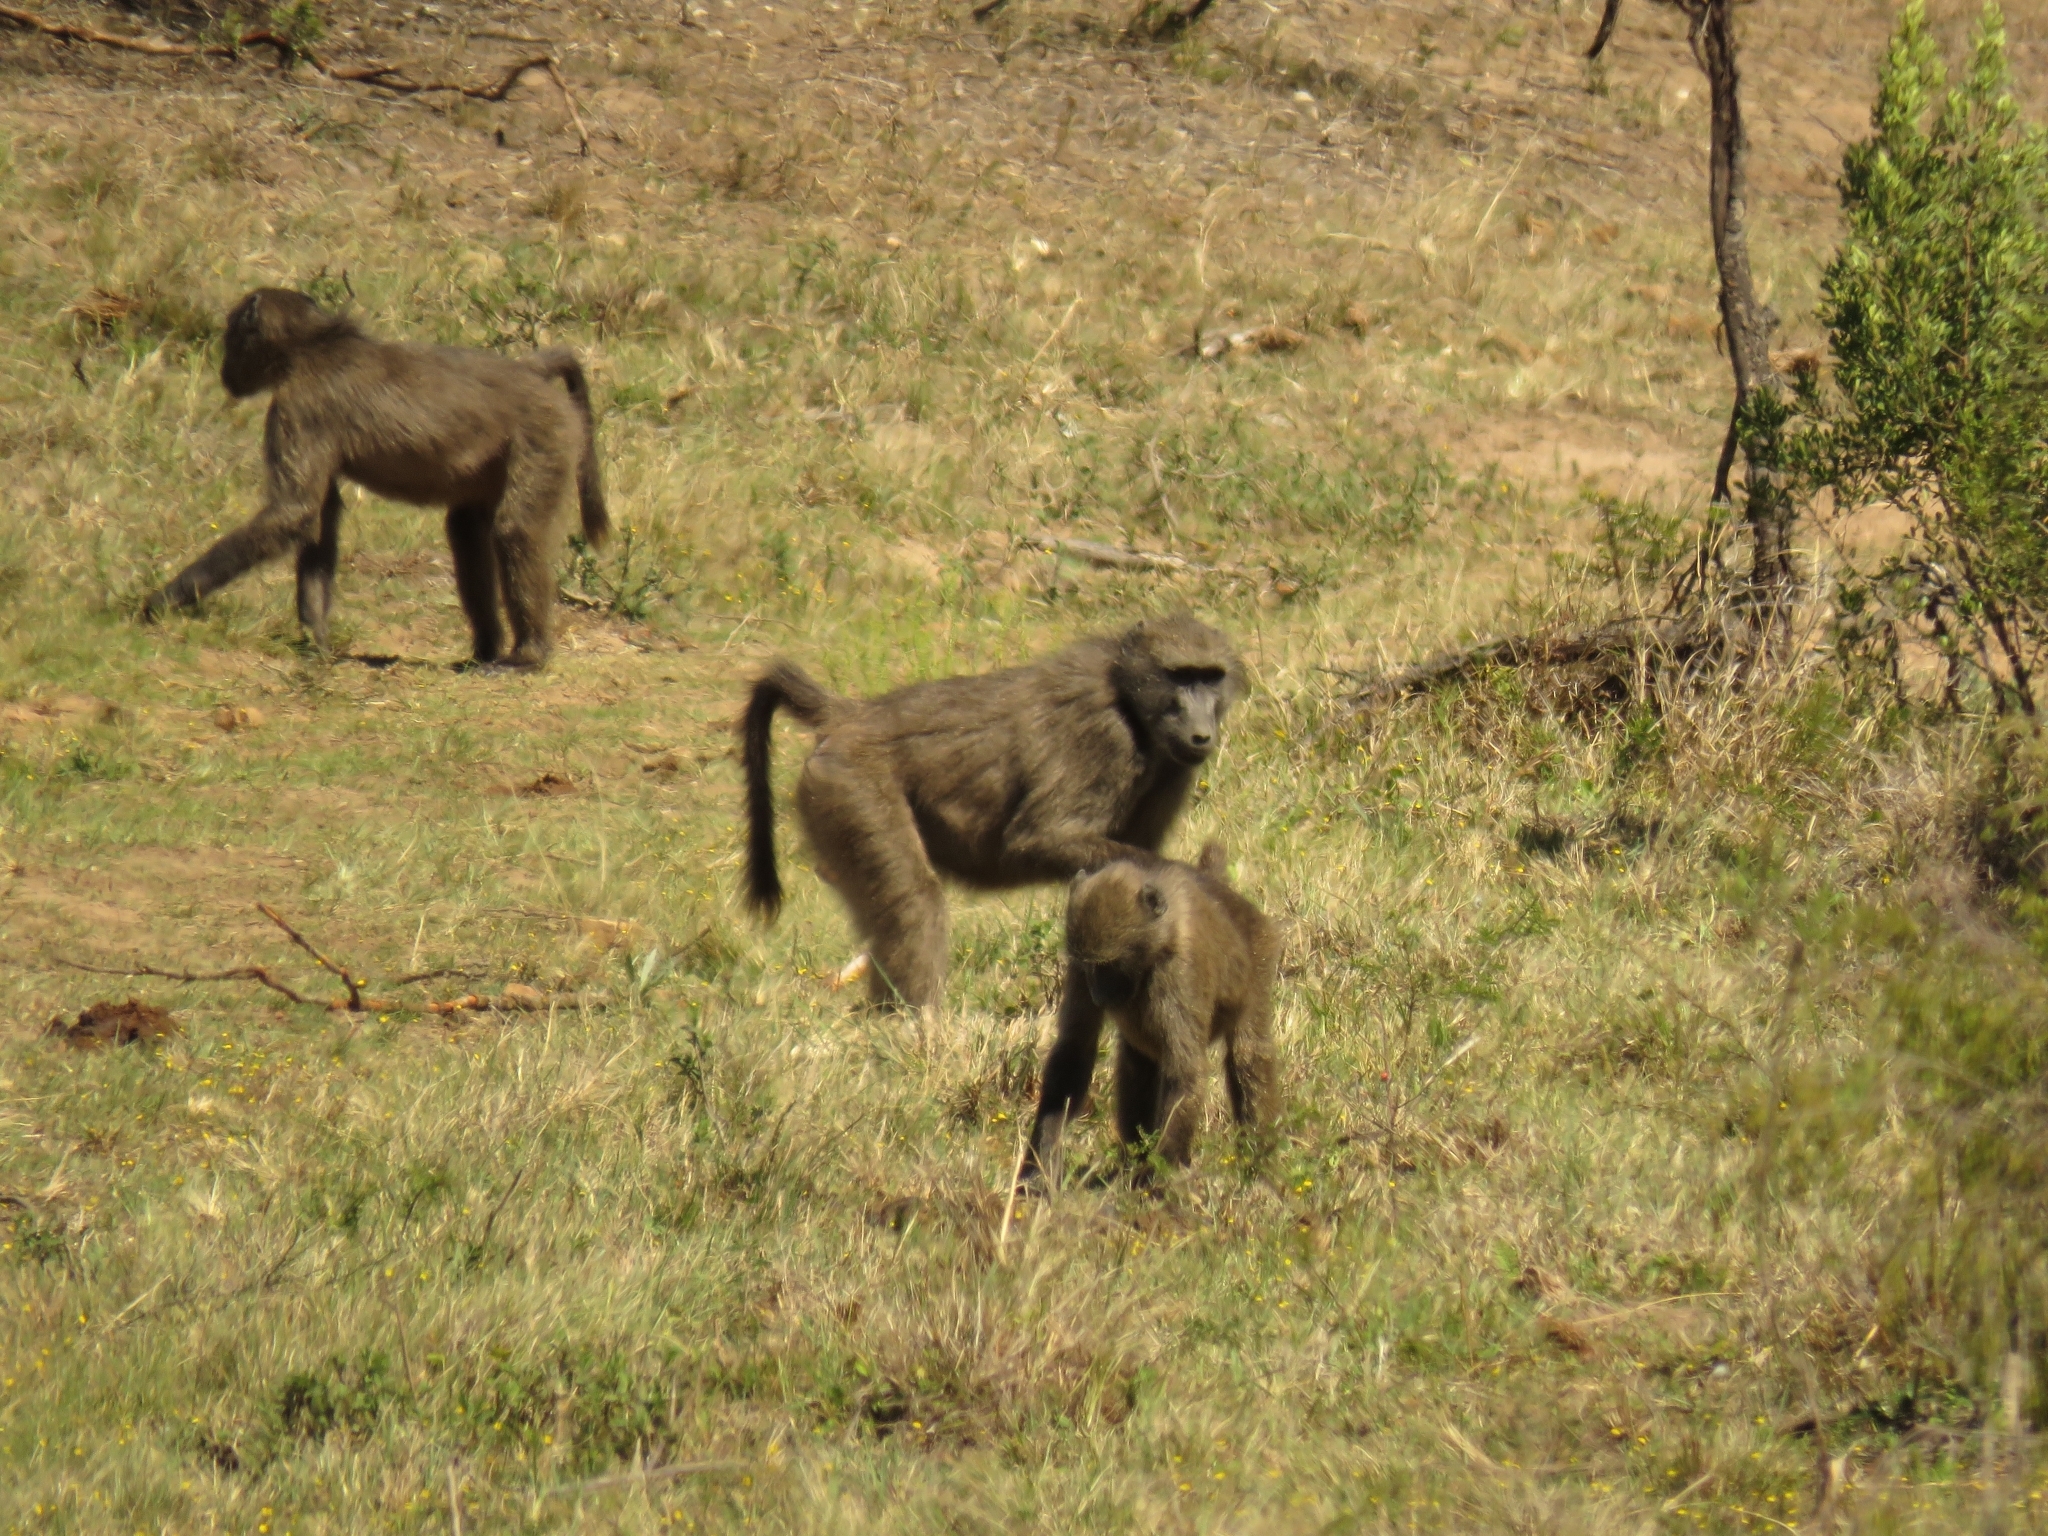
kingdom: Animalia
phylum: Chordata
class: Mammalia
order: Primates
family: Cercopithecidae
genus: Papio
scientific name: Papio ursinus
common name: Chacma baboon
